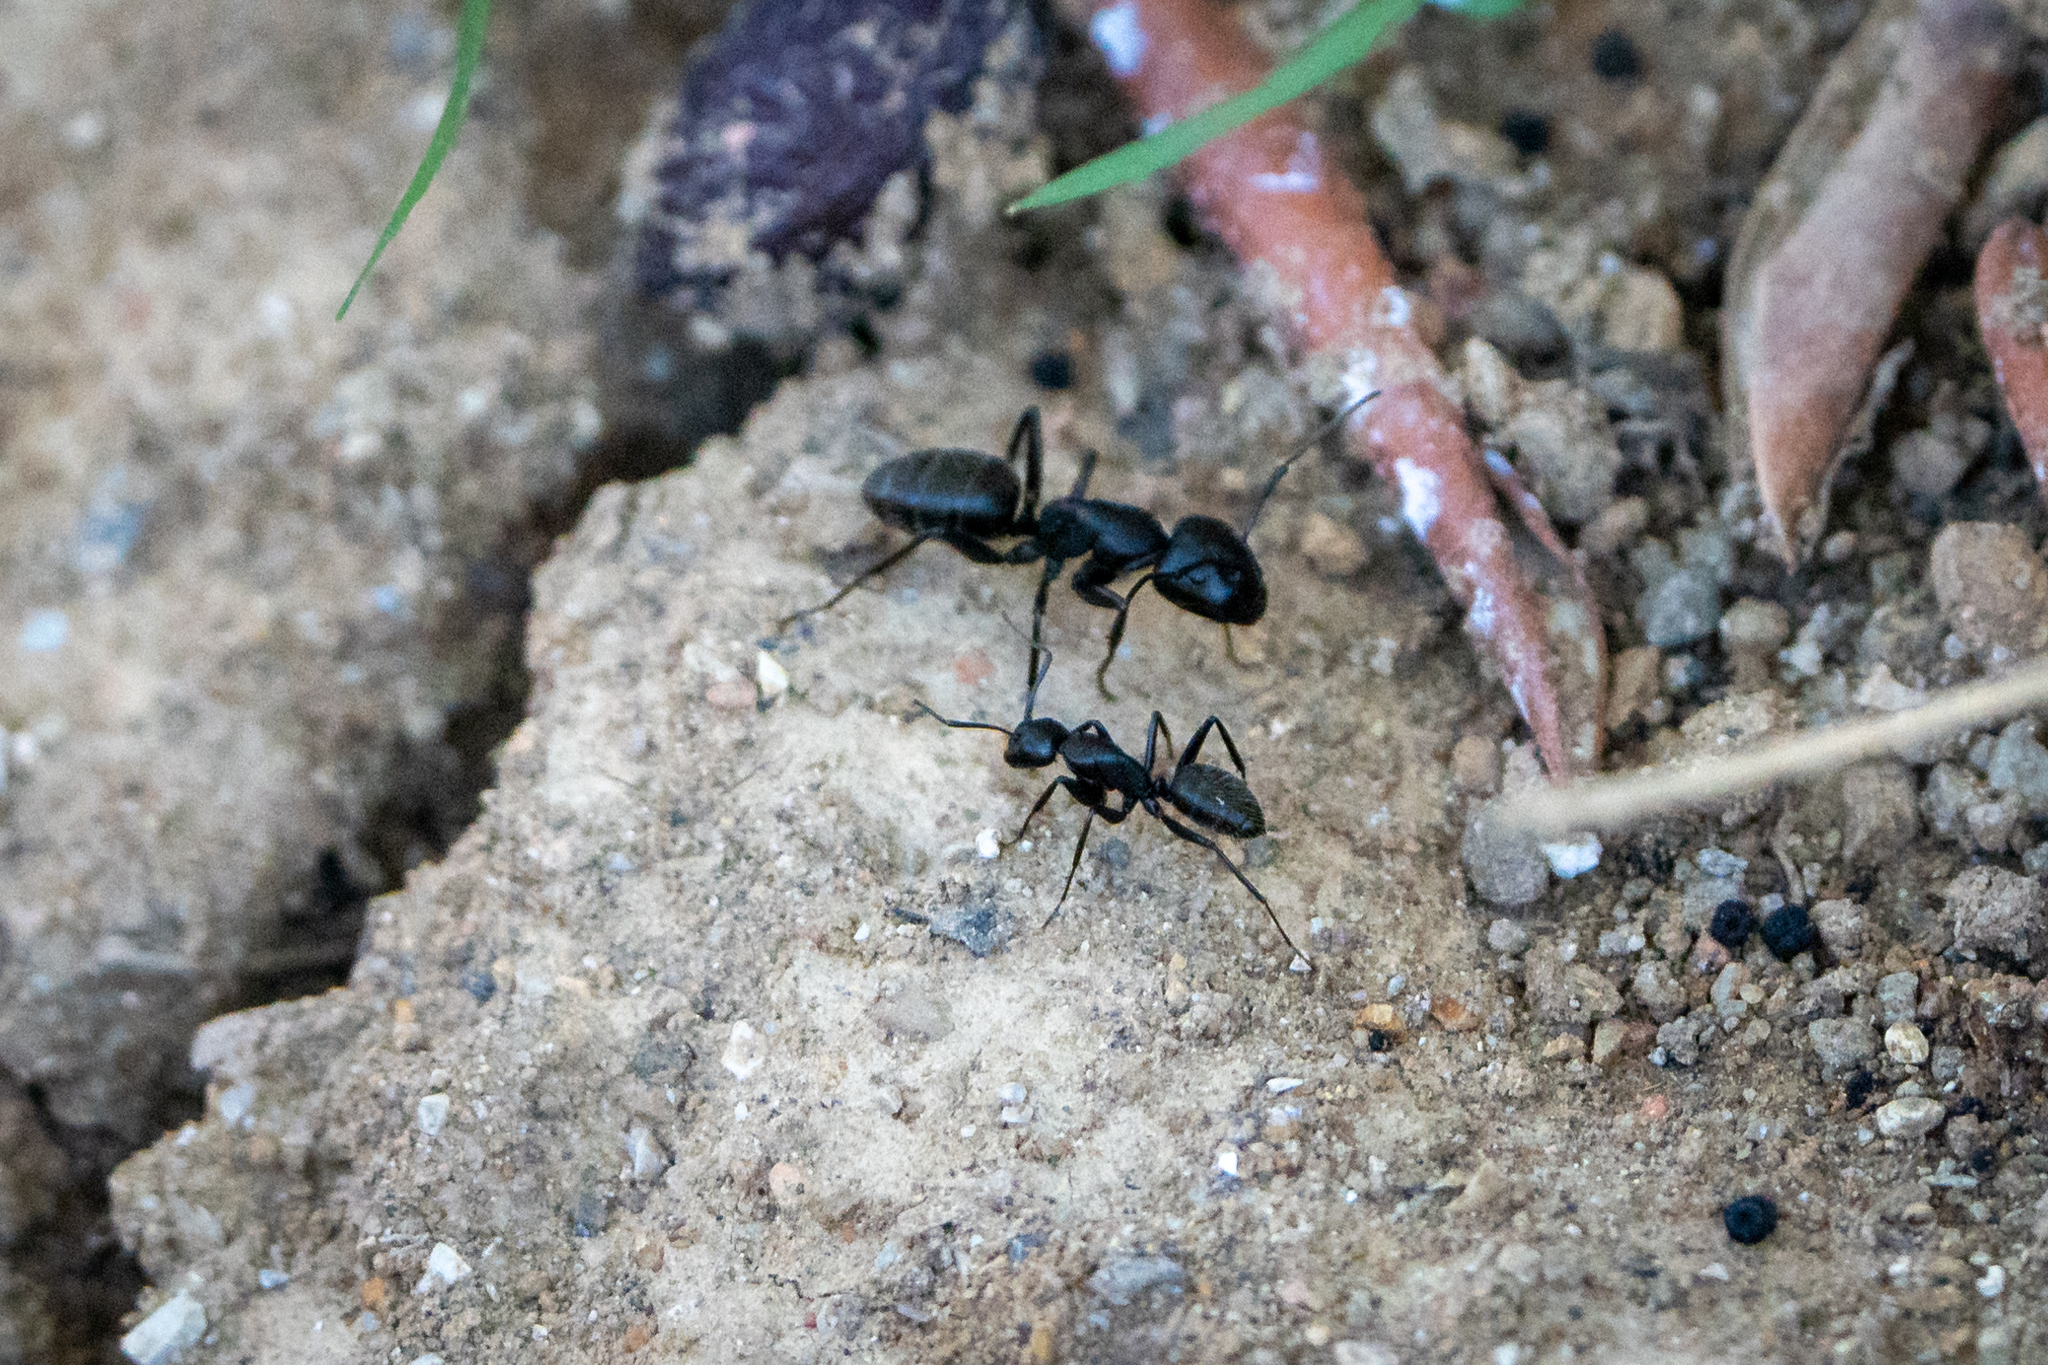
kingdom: Animalia
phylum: Arthropoda
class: Insecta
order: Hymenoptera
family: Formicidae
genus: Camponotus
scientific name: Camponotus vagus
